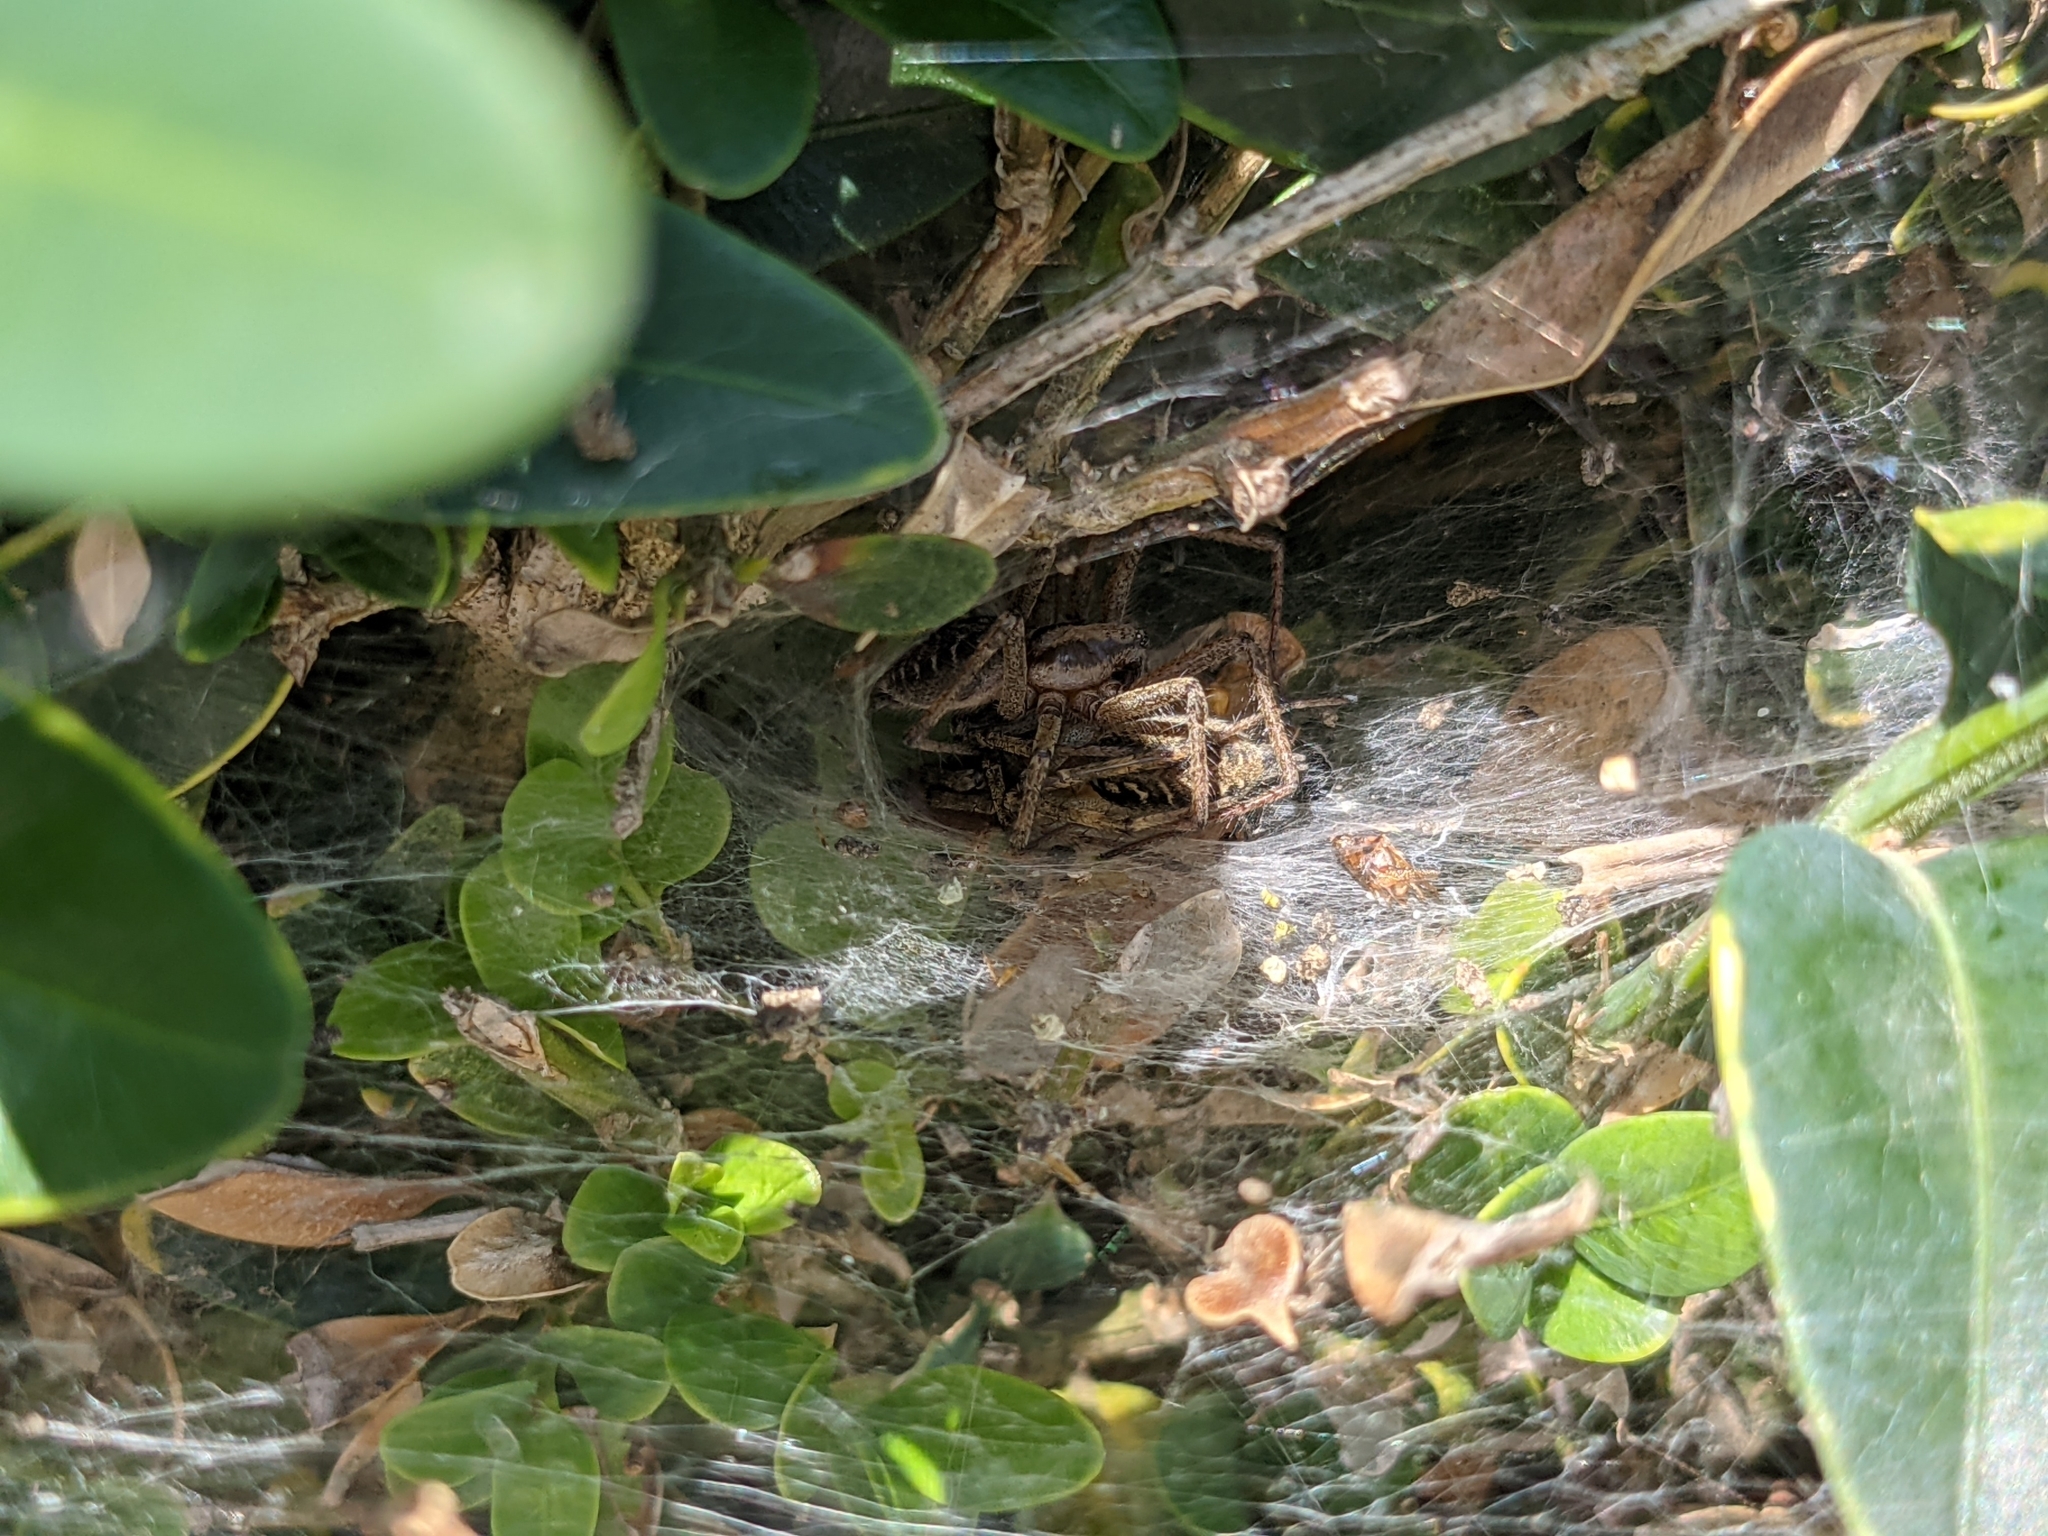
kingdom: Animalia
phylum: Arthropoda
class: Arachnida
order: Araneae
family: Agelenidae
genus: Agelena
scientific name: Agelena labyrinthica
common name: Labyrinth spider
